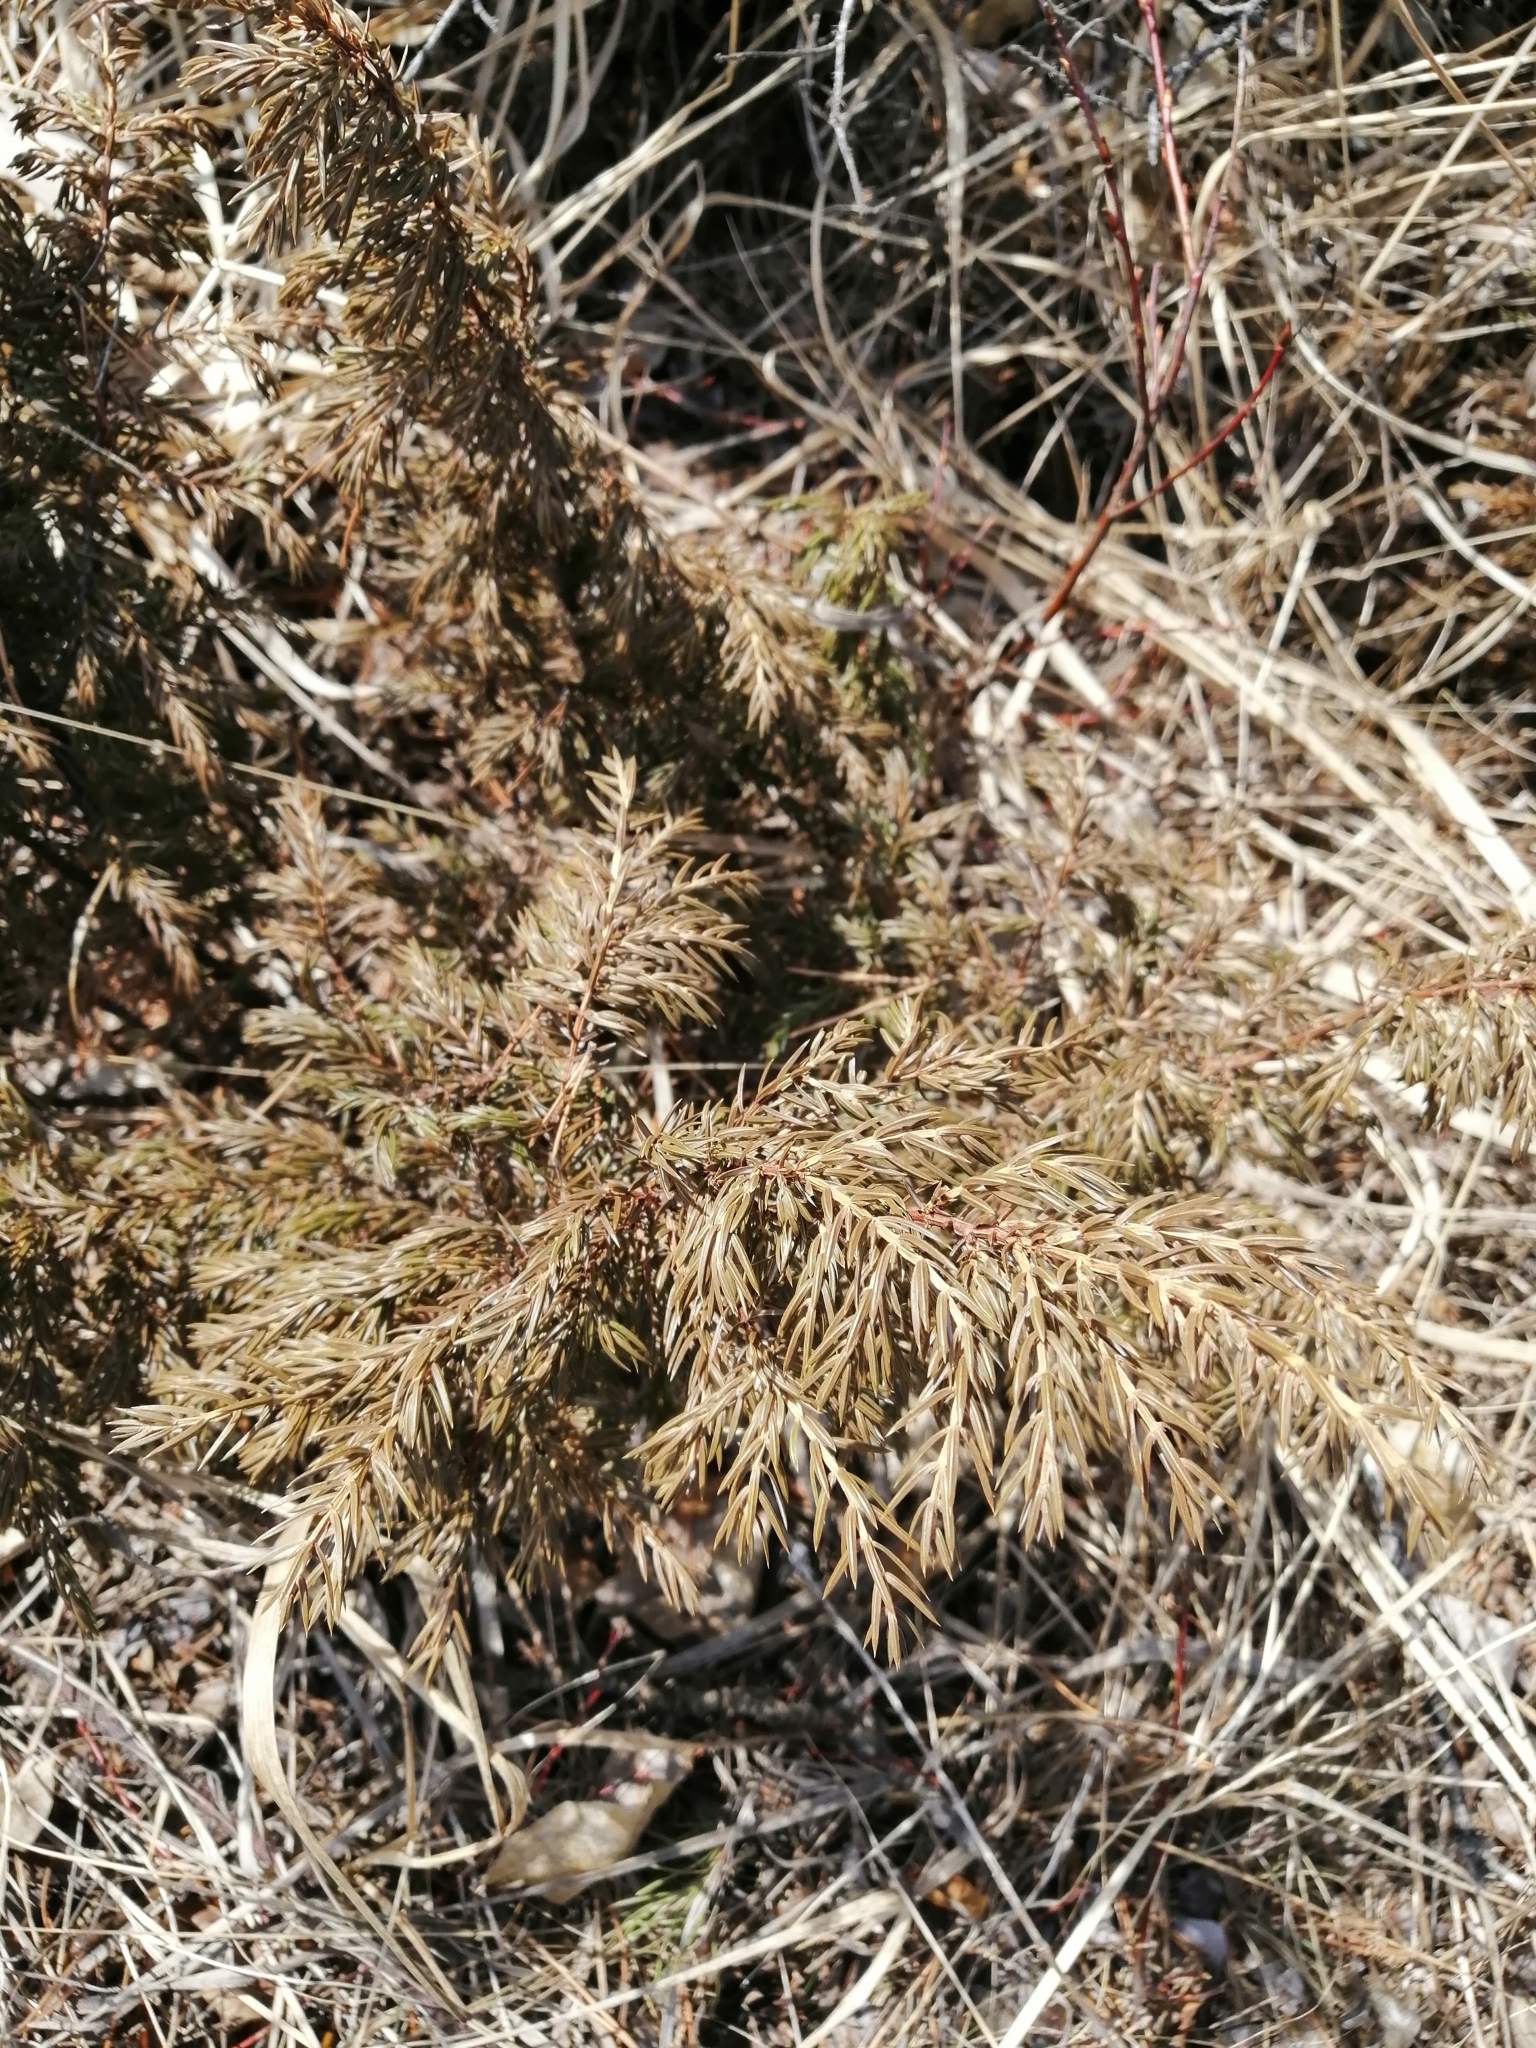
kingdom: Plantae
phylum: Tracheophyta
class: Pinopsida
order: Pinales
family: Cupressaceae
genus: Juniperus
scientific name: Juniperus communis
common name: Common juniper
